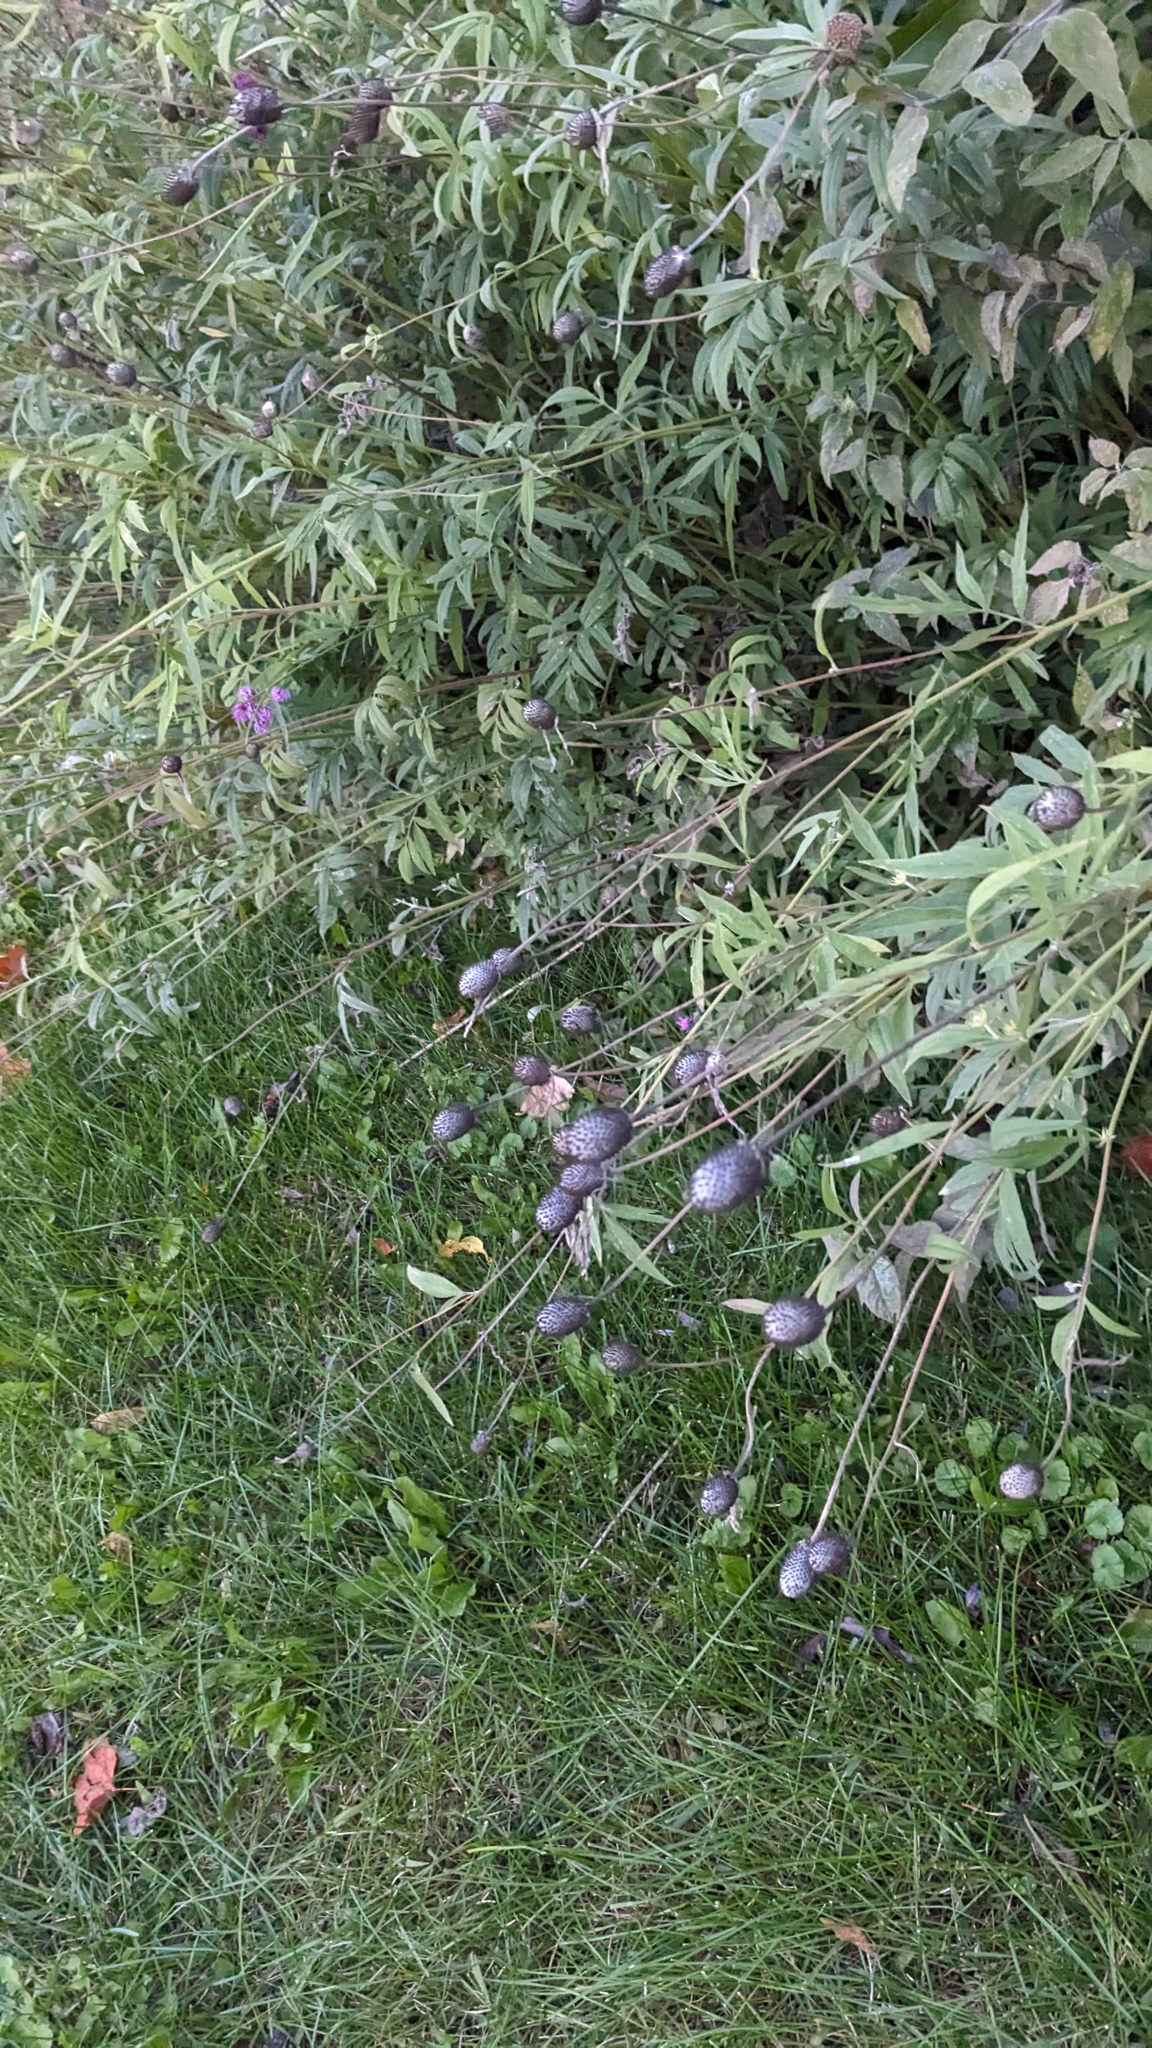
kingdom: Plantae
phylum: Tracheophyta
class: Magnoliopsida
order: Asterales
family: Asteraceae
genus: Ratibida
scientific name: Ratibida pinnata
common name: Drooping prairie-coneflower
